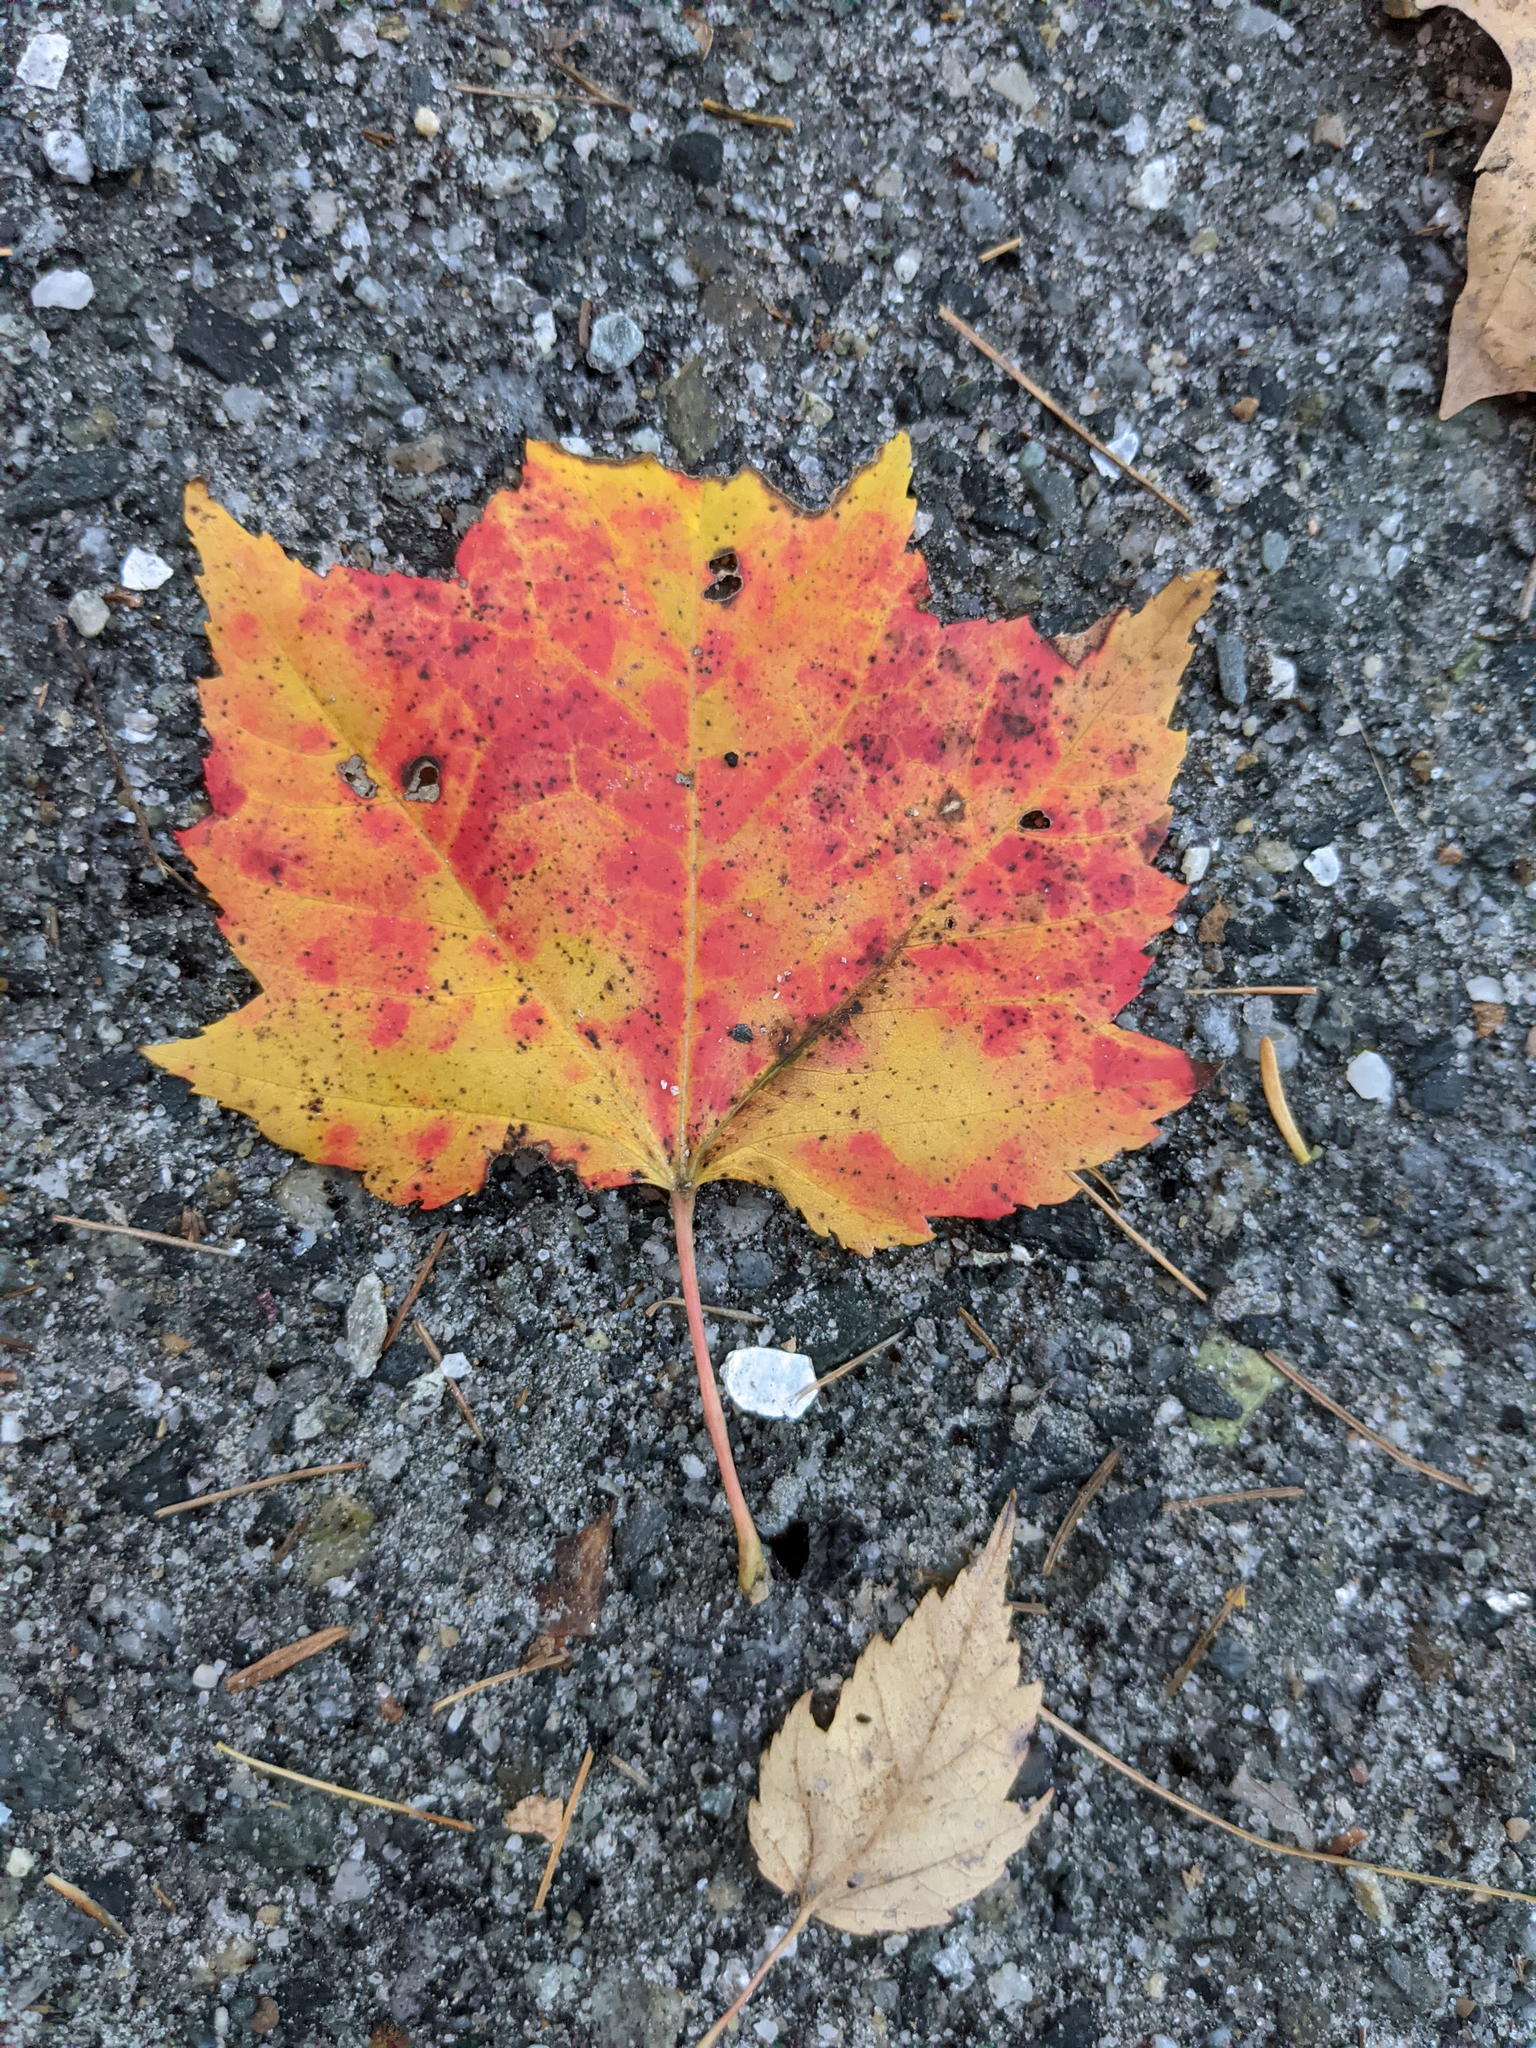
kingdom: Plantae
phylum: Tracheophyta
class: Magnoliopsida
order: Sapindales
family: Sapindaceae
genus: Acer
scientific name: Acer rubrum
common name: Red maple
